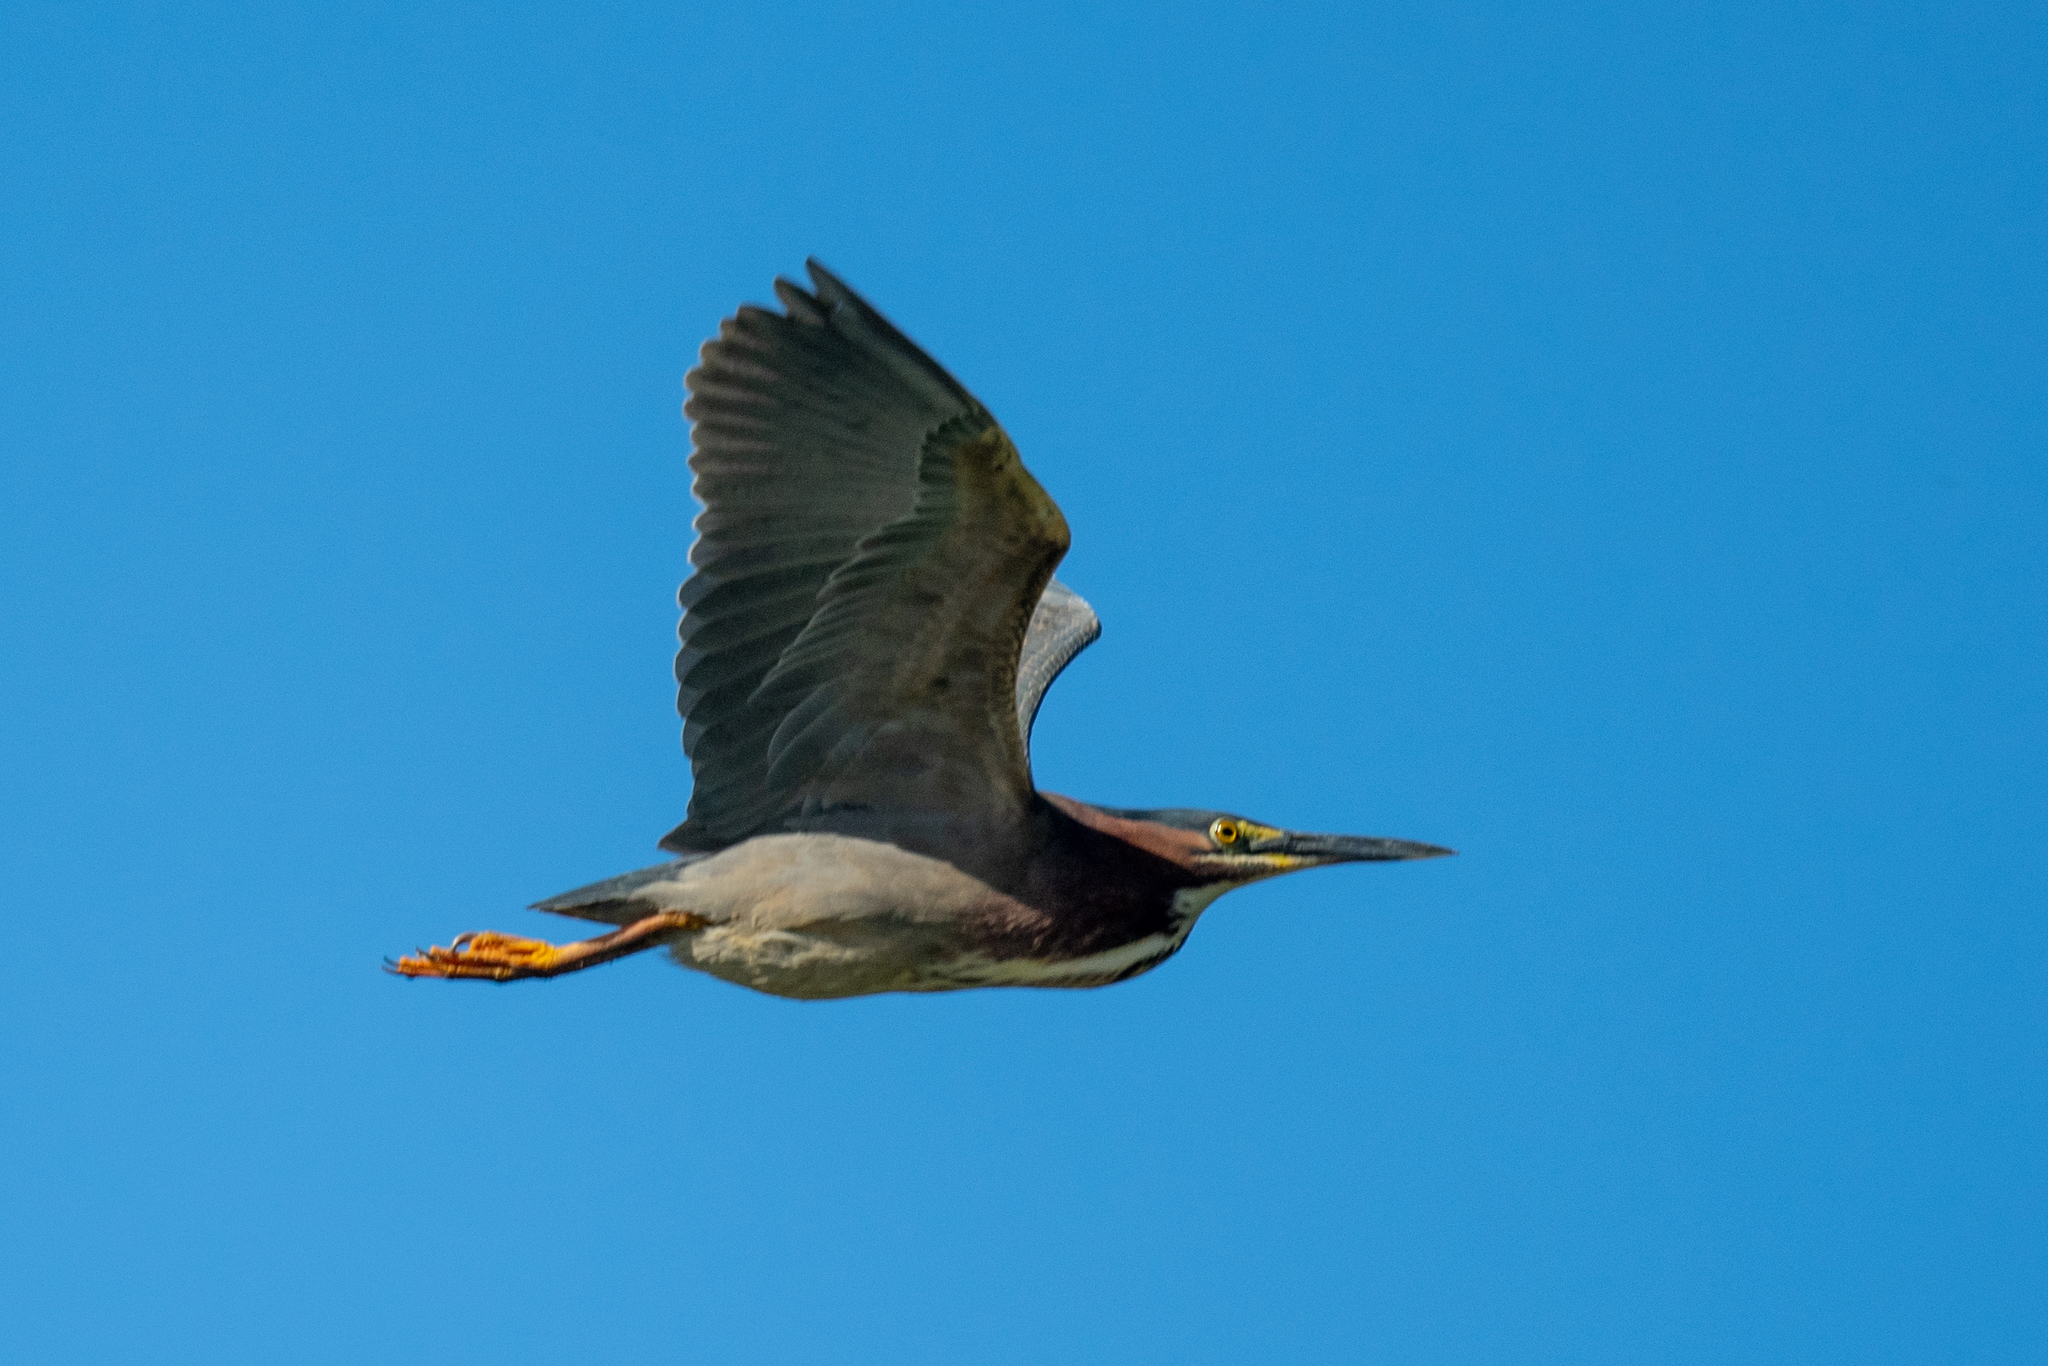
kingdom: Animalia
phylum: Chordata
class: Aves
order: Pelecaniformes
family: Ardeidae
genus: Butorides
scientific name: Butorides virescens
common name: Green heron
